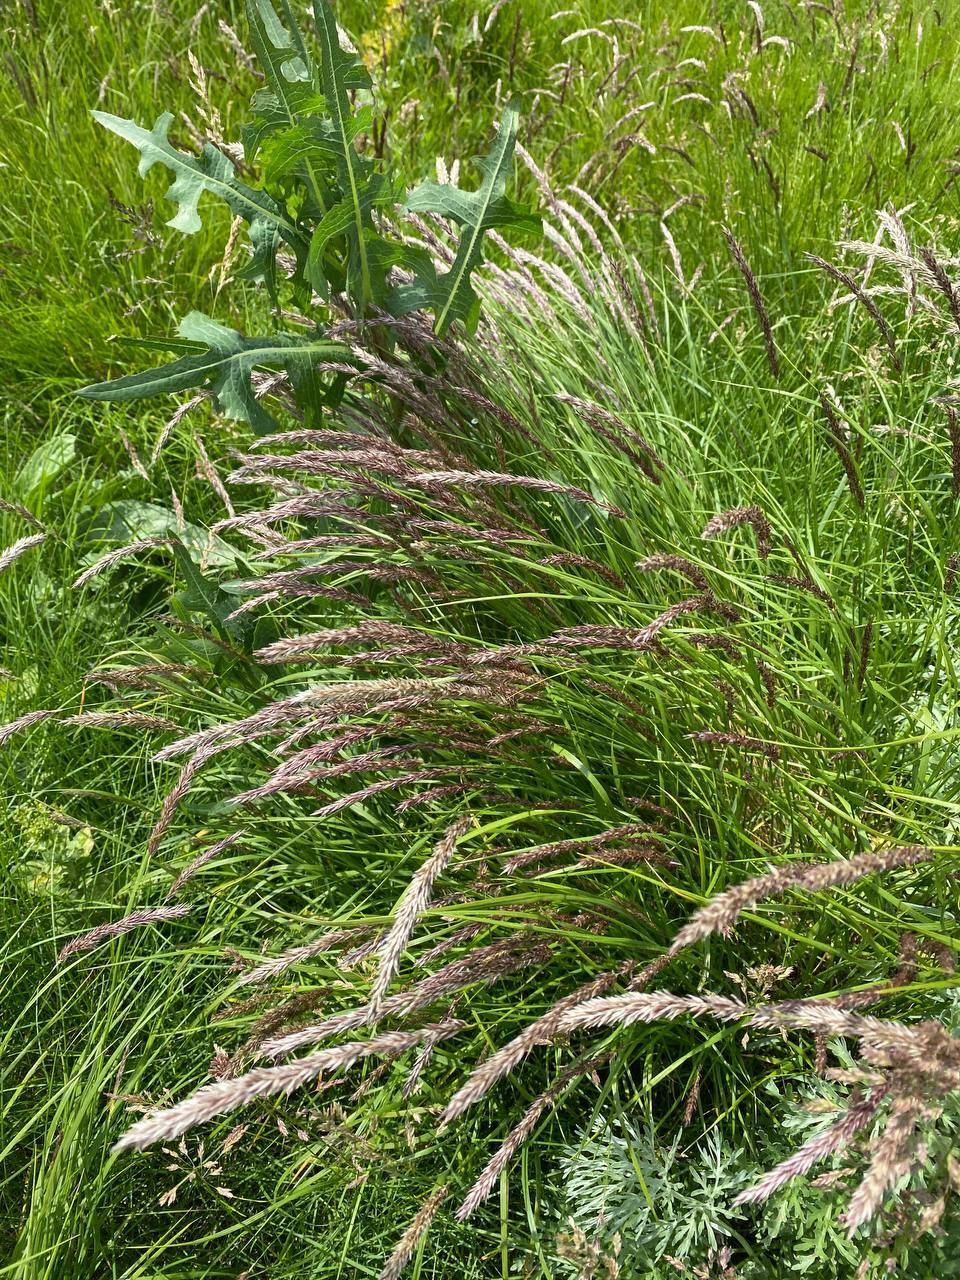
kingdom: Plantae
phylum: Tracheophyta
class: Liliopsida
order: Poales
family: Poaceae
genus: Melica
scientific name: Melica transsilvanica
